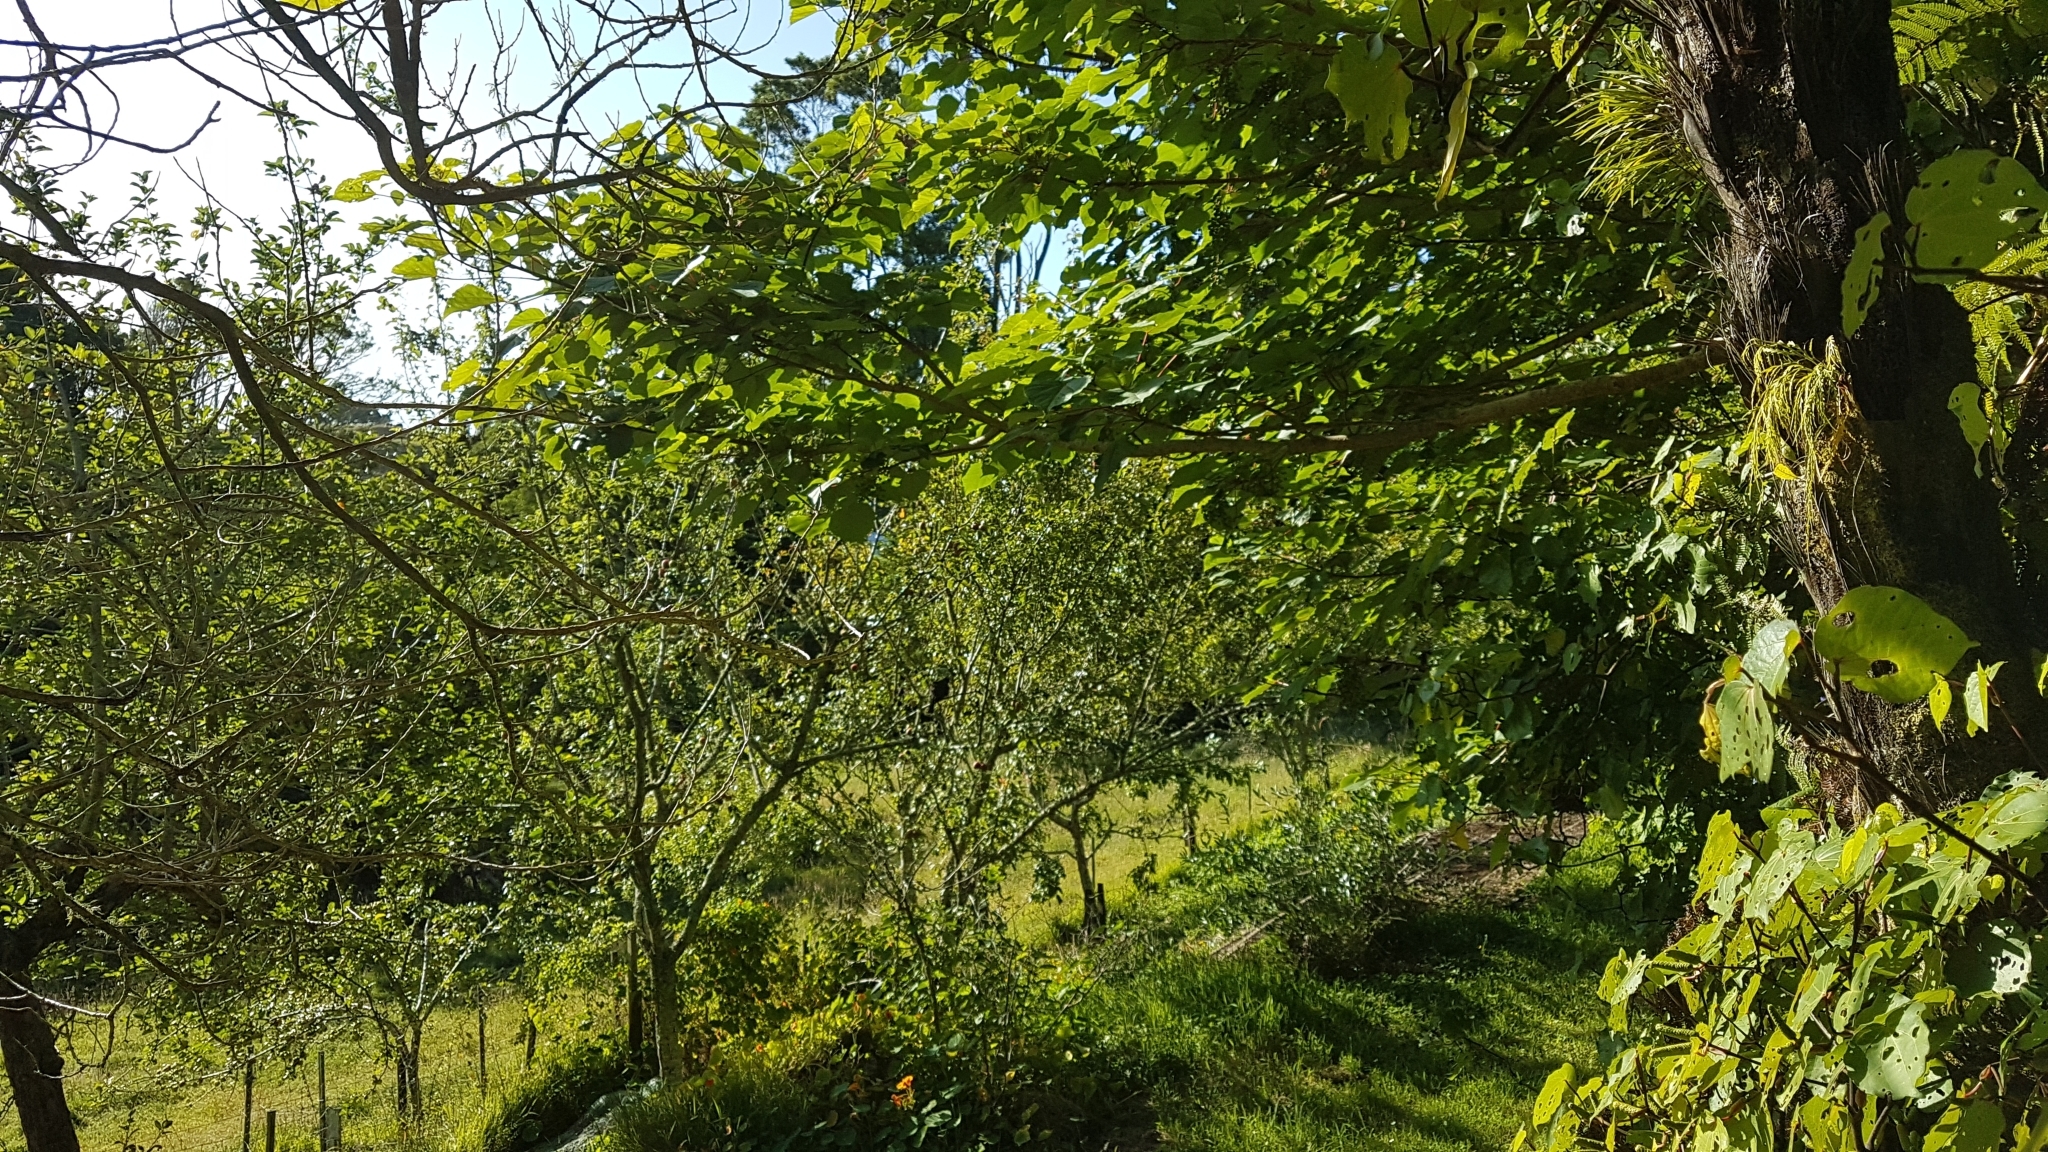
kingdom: Animalia
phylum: Chordata
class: Aves
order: Passeriformes
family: Meliphagidae
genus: Prosthemadera
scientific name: Prosthemadera novaeseelandiae
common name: Tui
